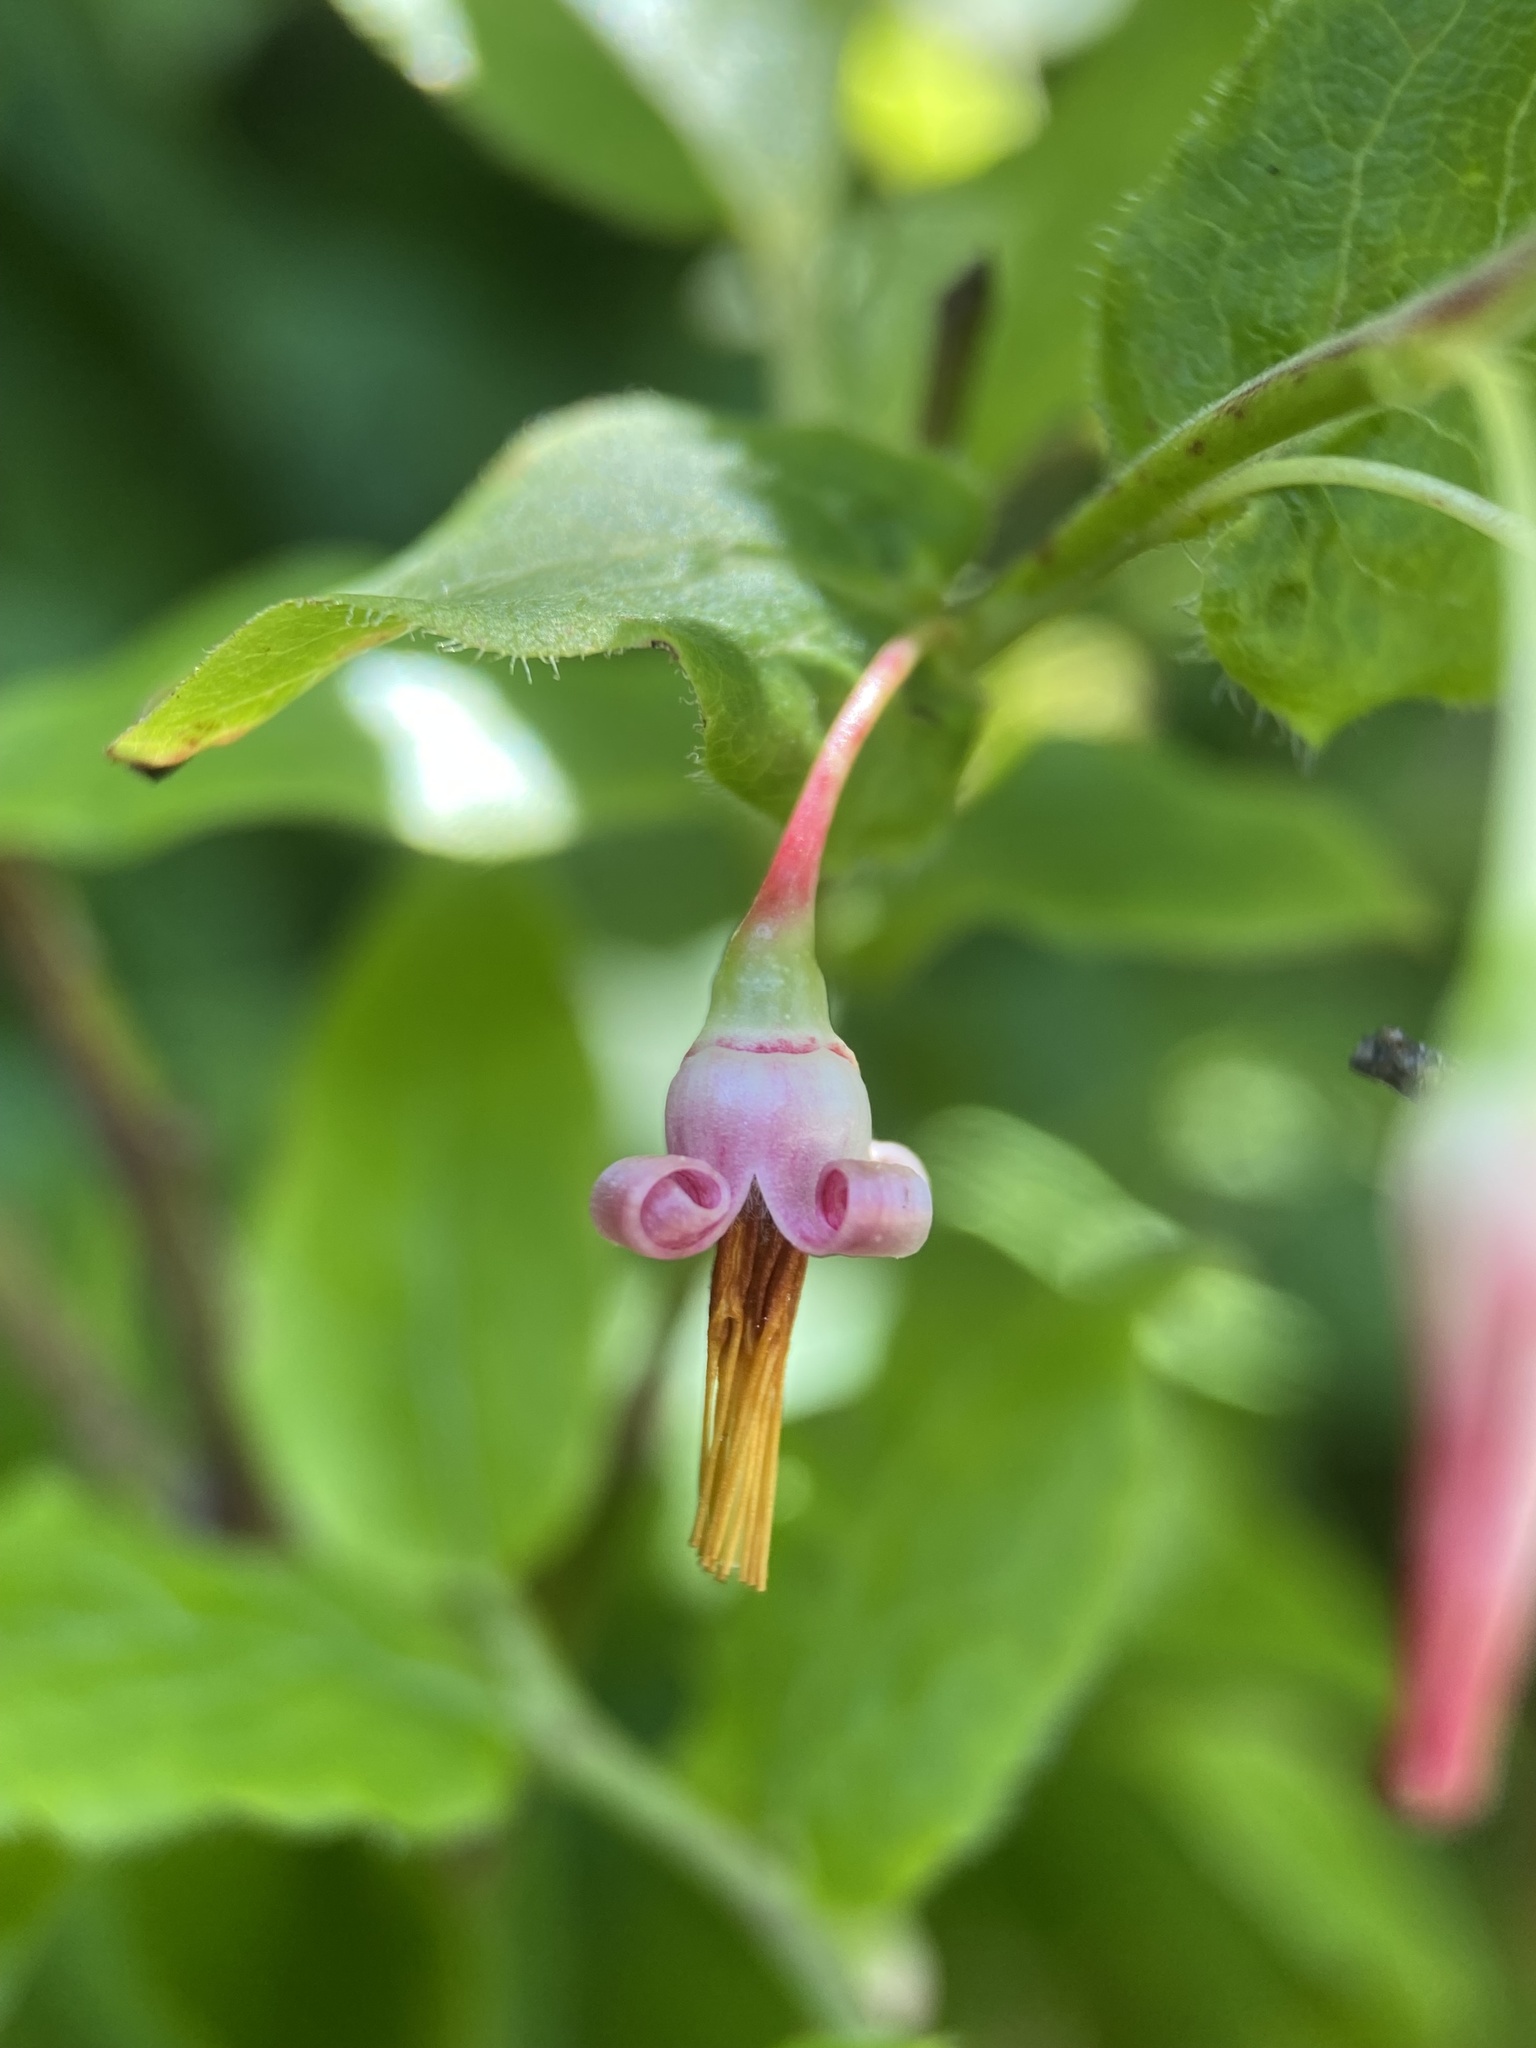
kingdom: Plantae
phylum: Tracheophyta
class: Magnoliopsida
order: Ericales
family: Ericaceae
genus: Vaccinium
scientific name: Vaccinium erythrocarpum
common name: Bearberry
